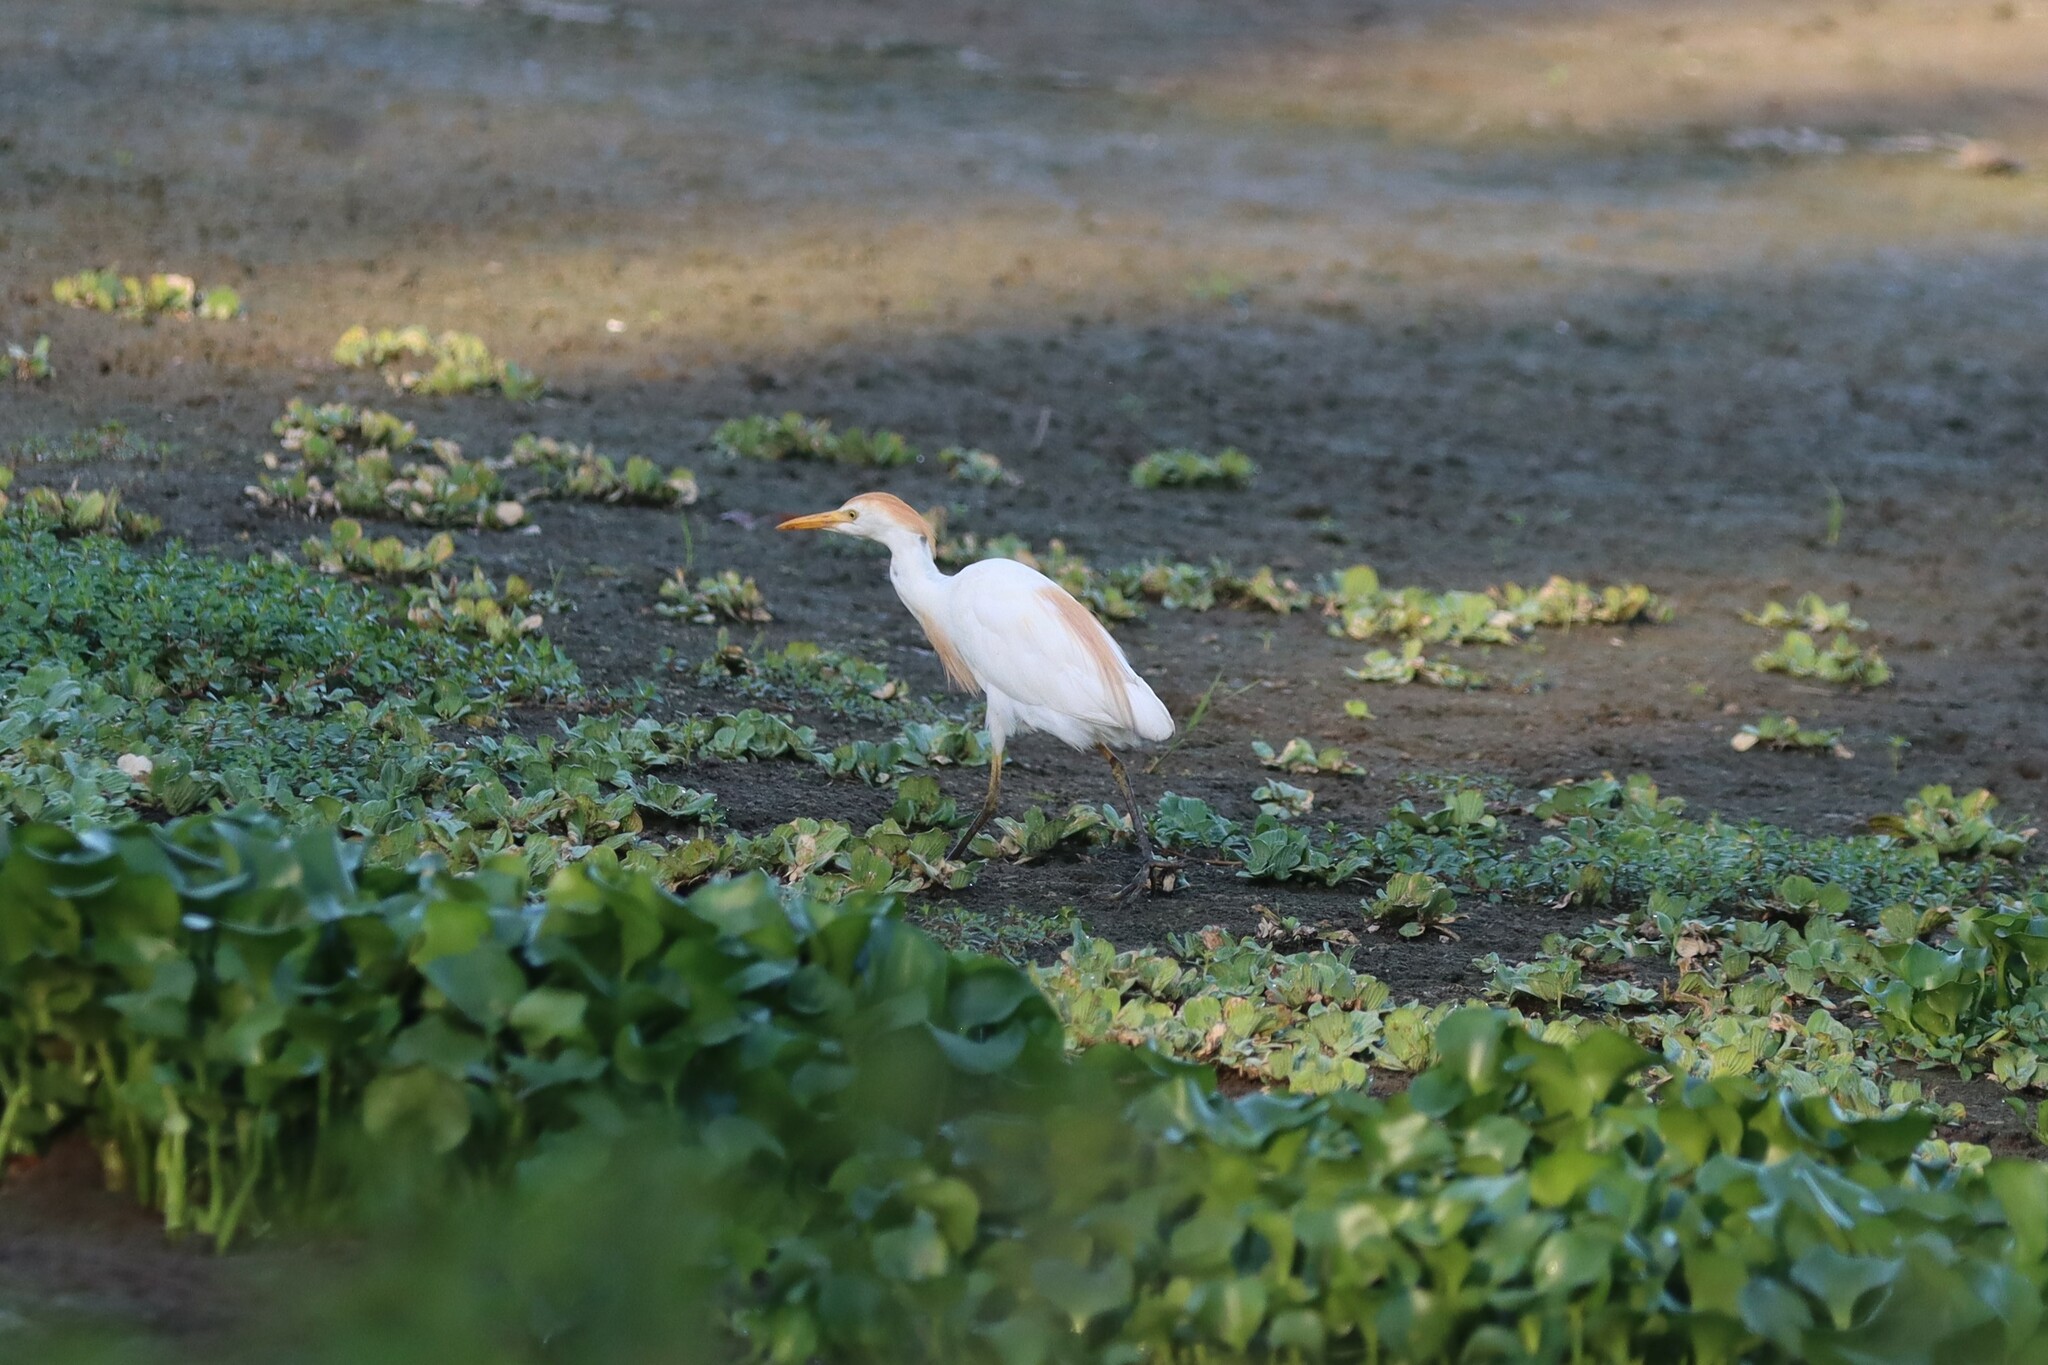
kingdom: Animalia
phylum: Chordata
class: Aves
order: Pelecaniformes
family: Ardeidae
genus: Bubulcus
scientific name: Bubulcus ibis
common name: Cattle egret
